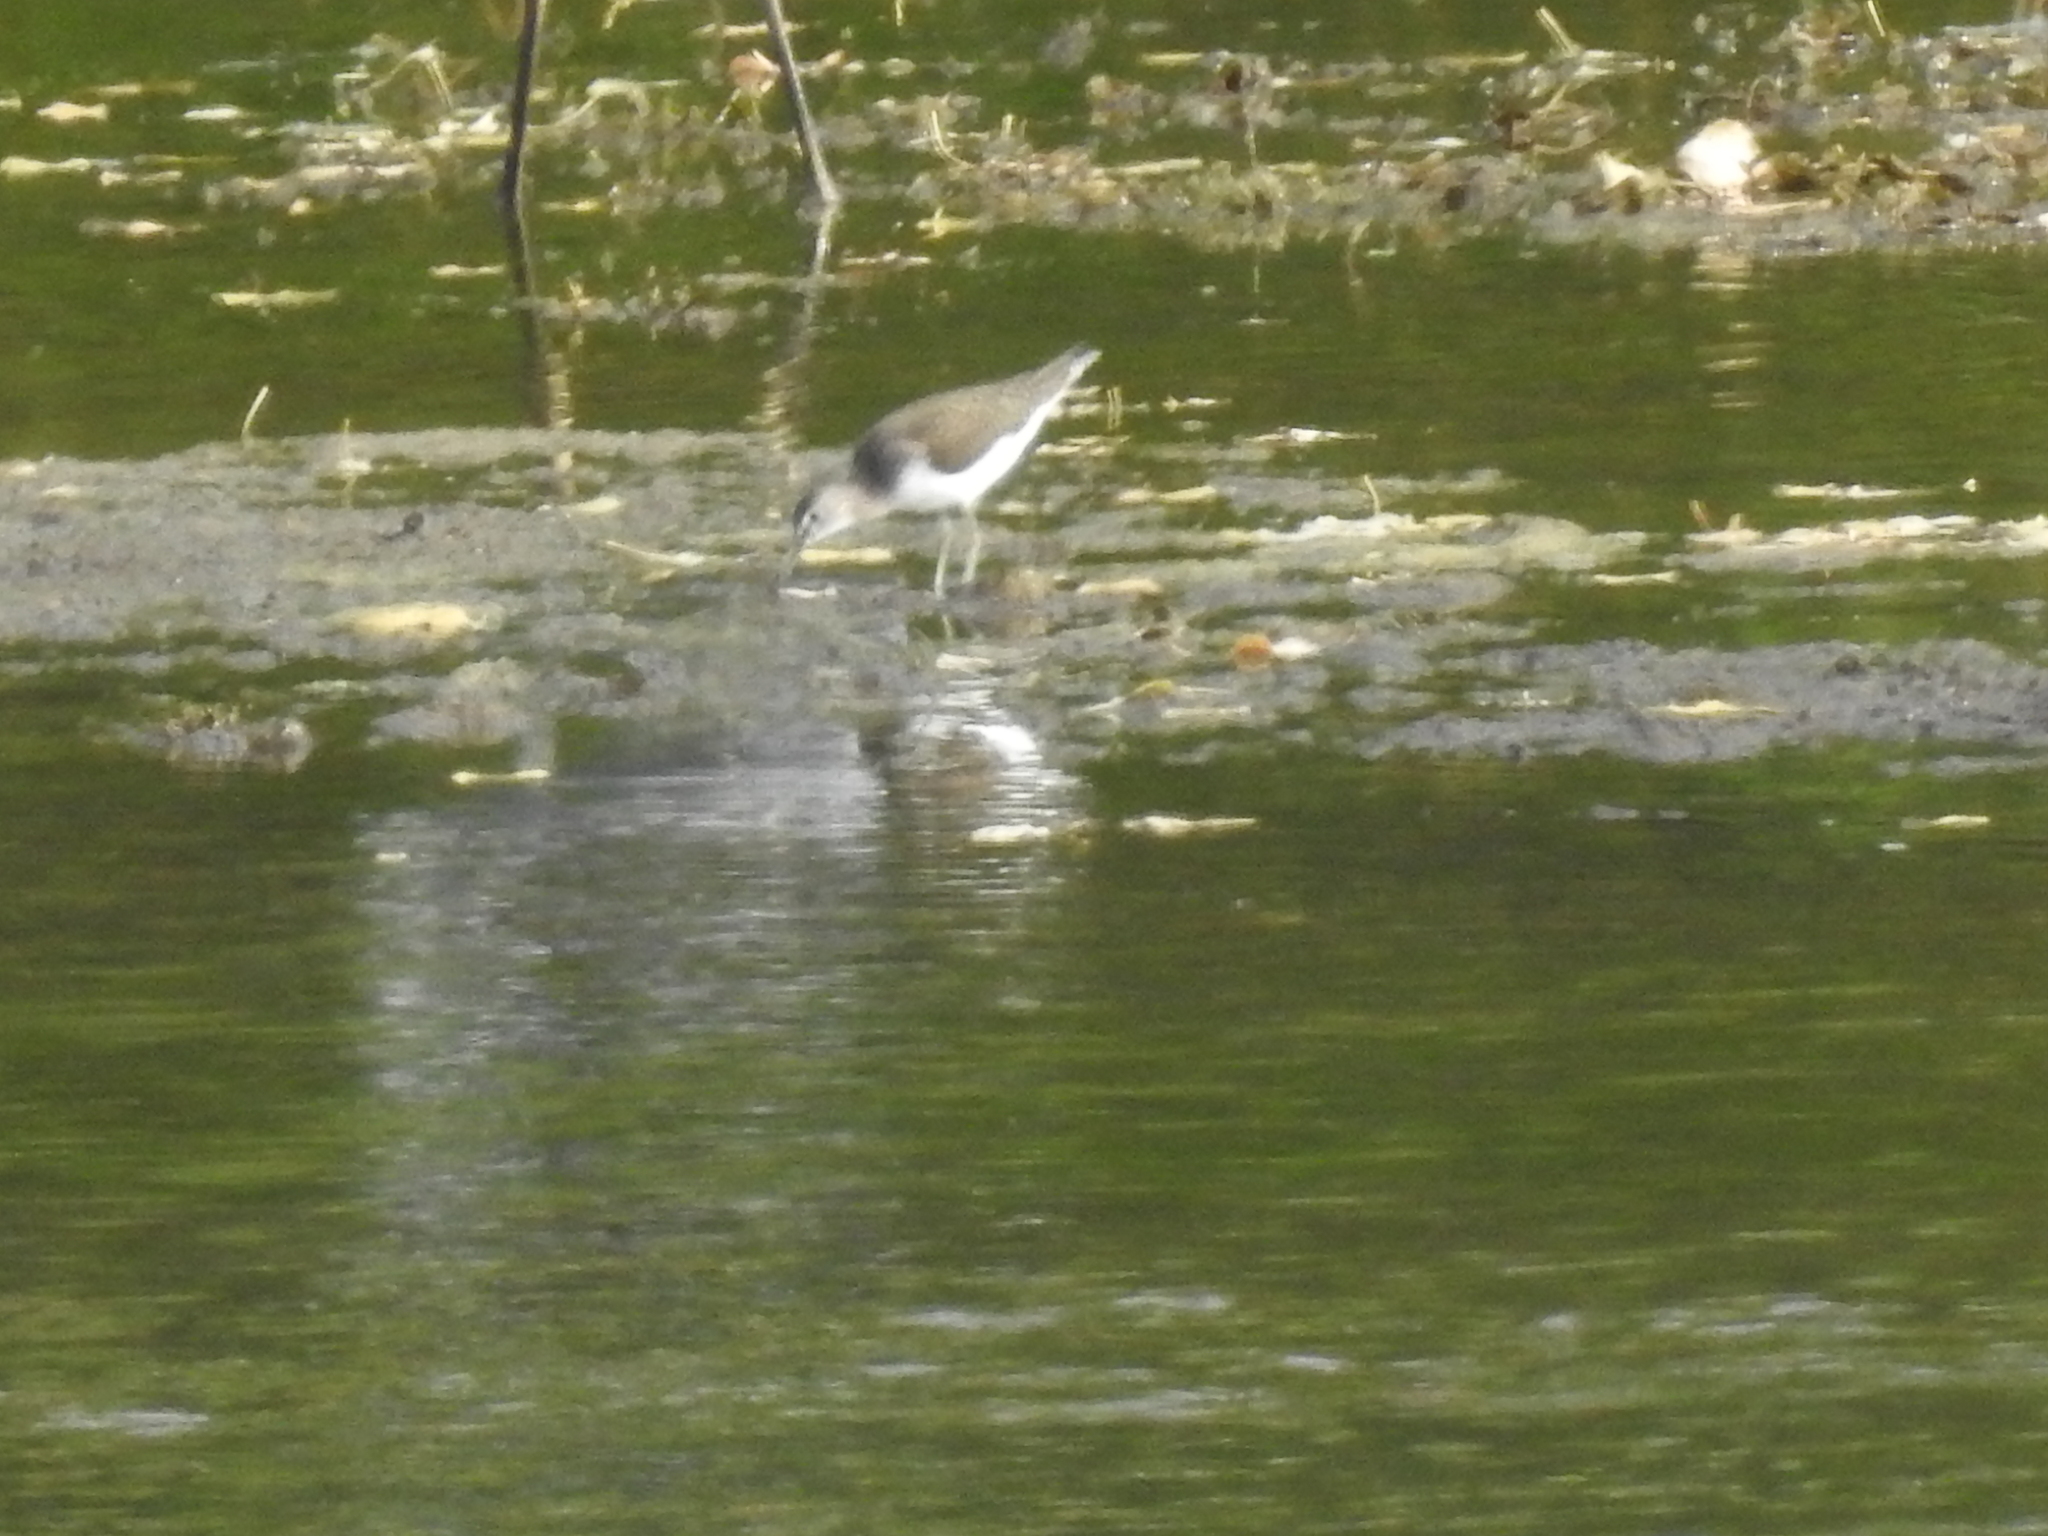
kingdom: Animalia
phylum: Chordata
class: Aves
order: Charadriiformes
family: Scolopacidae
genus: Tringa
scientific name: Tringa ochropus
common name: Green sandpiper
